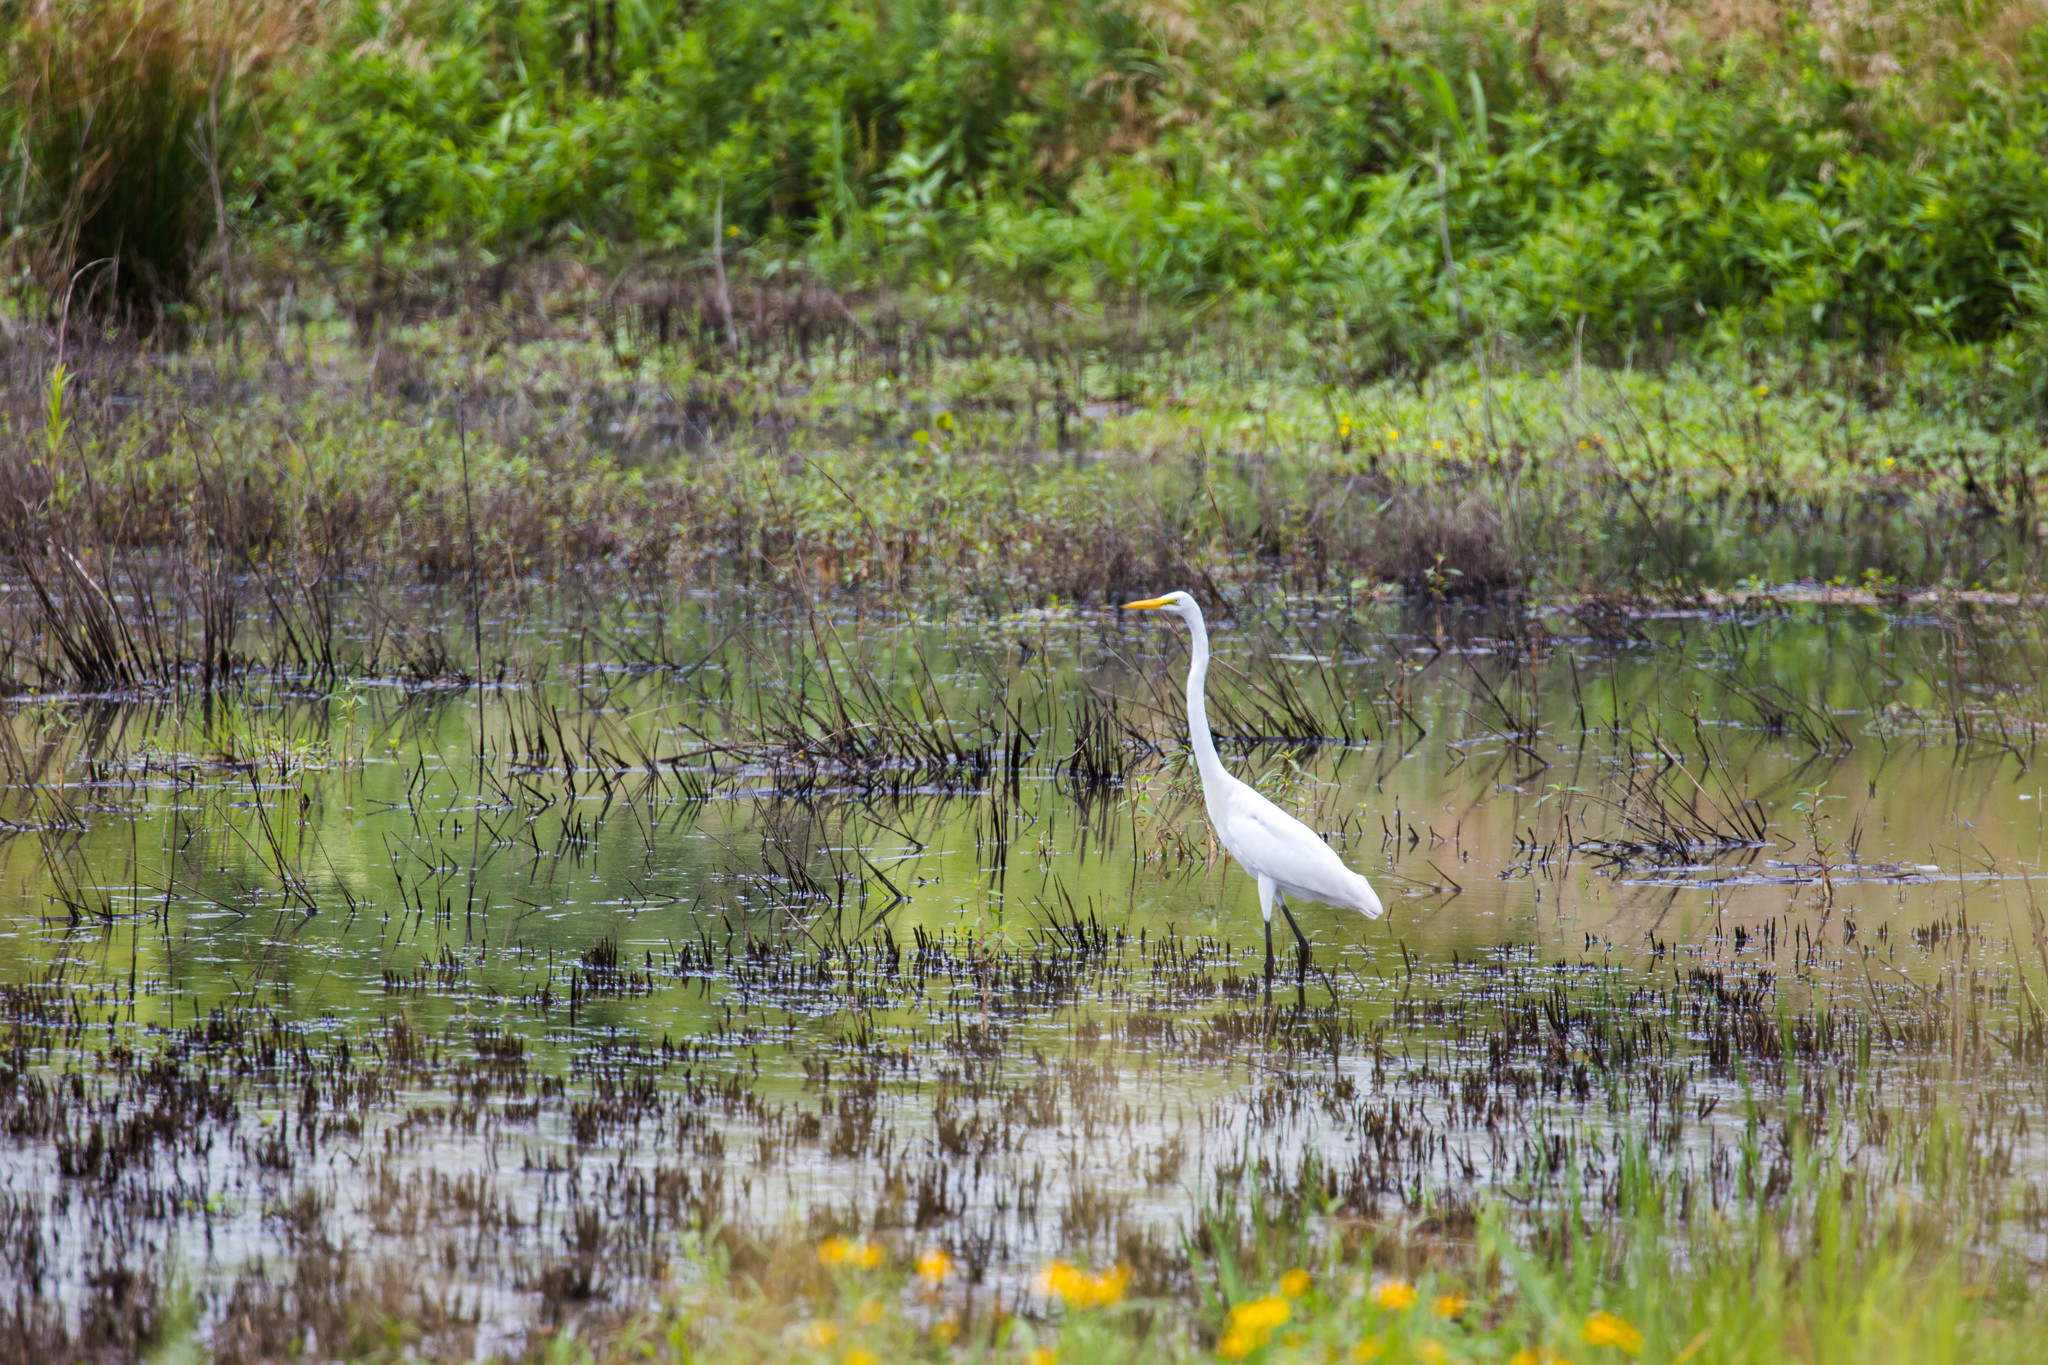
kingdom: Animalia
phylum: Chordata
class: Aves
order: Pelecaniformes
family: Ardeidae
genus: Ardea
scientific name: Ardea alba
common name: Great egret
